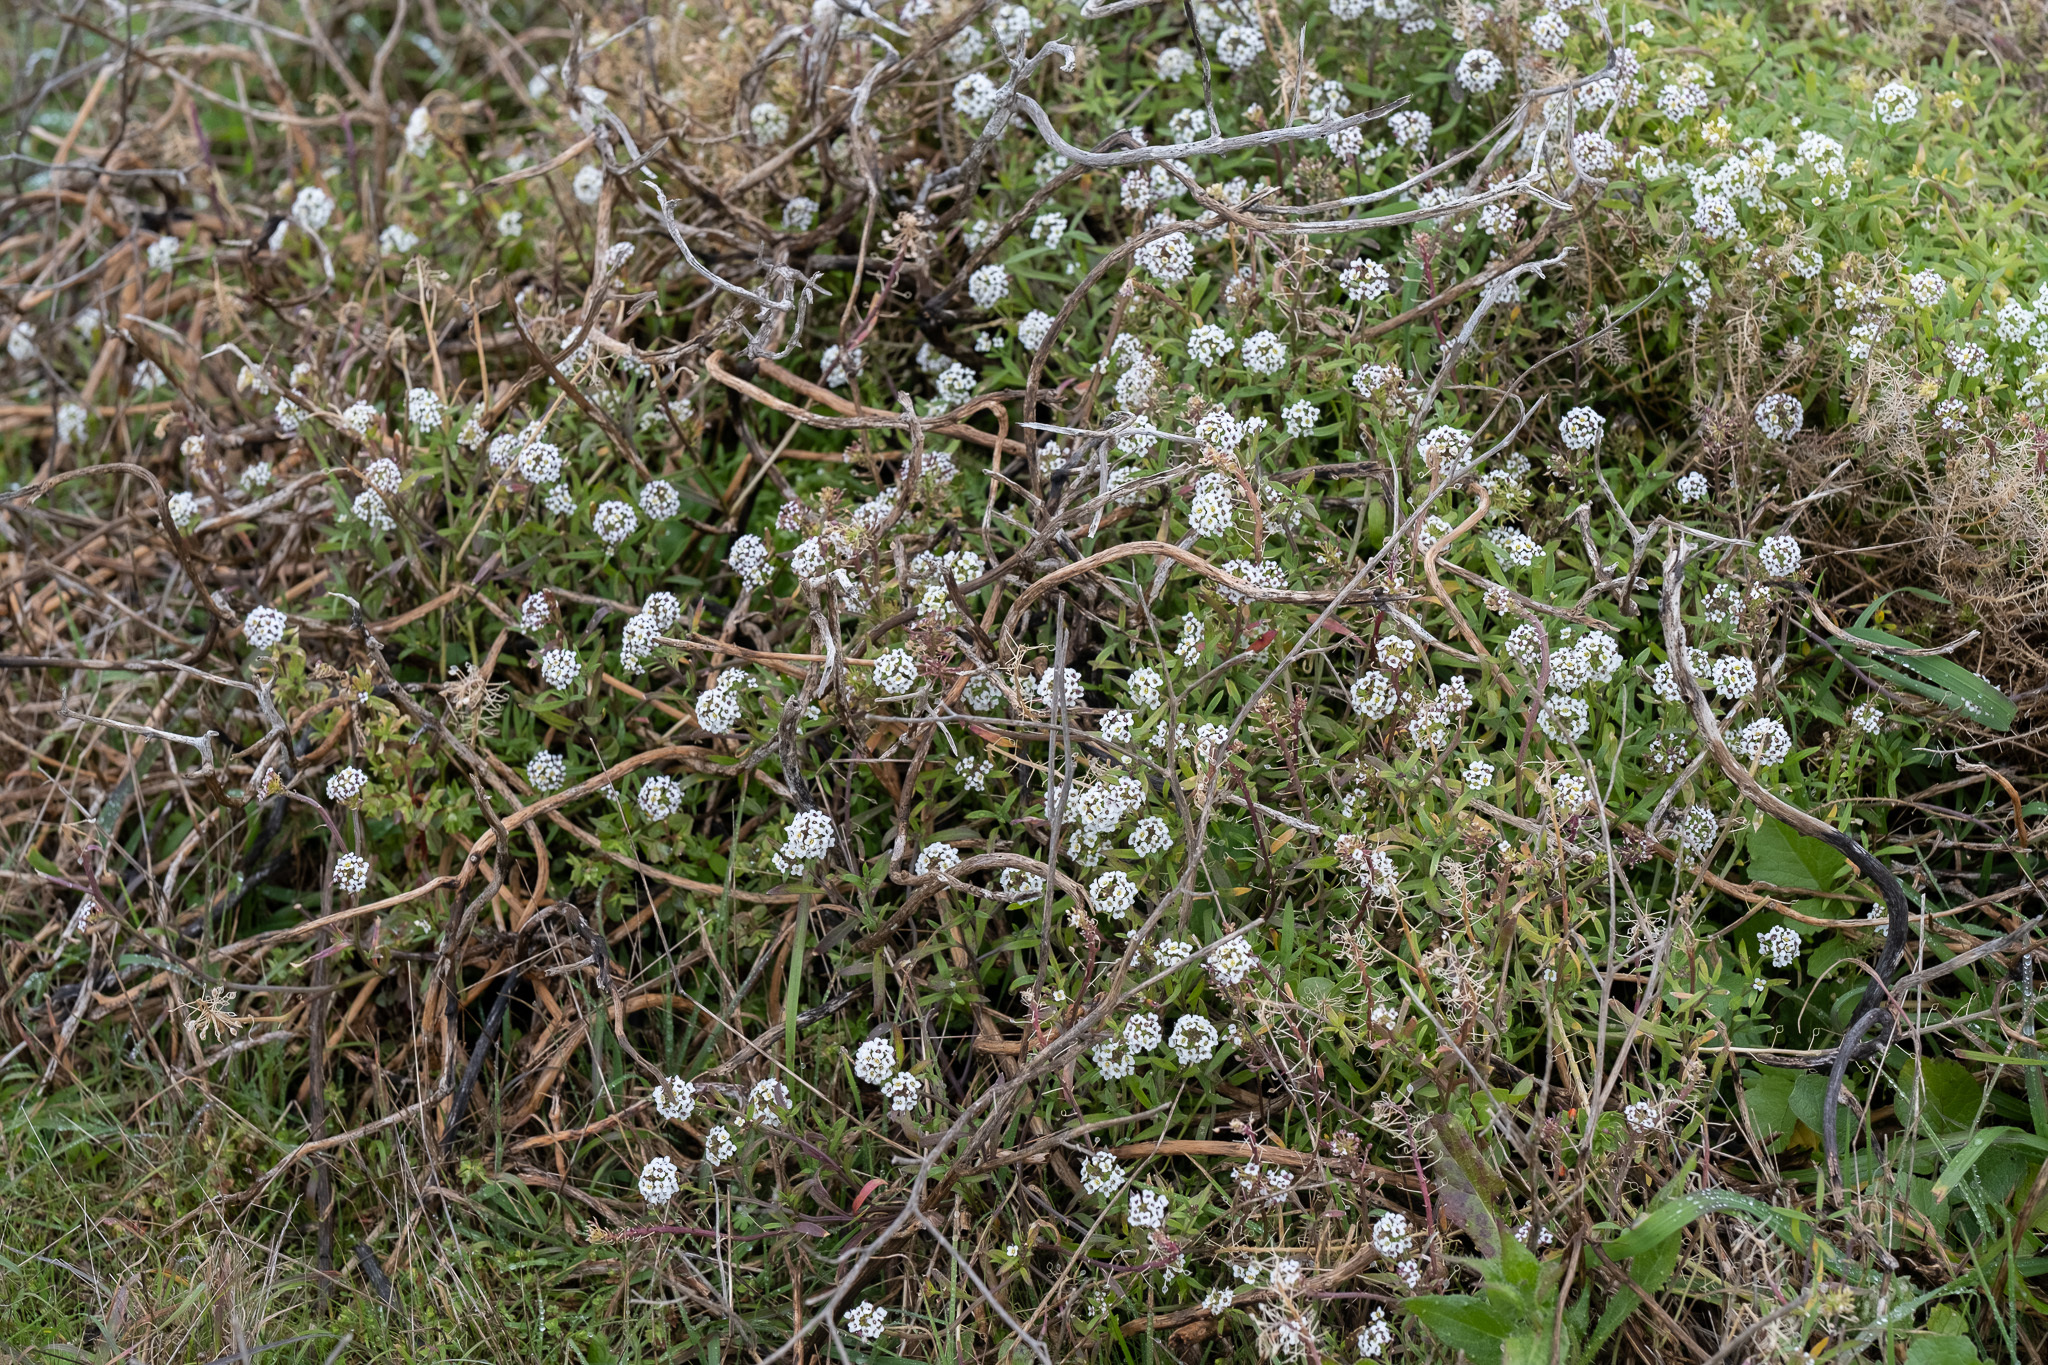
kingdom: Plantae
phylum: Tracheophyta
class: Magnoliopsida
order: Brassicales
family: Brassicaceae
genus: Lobularia
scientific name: Lobularia maritima
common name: Sweet alison
